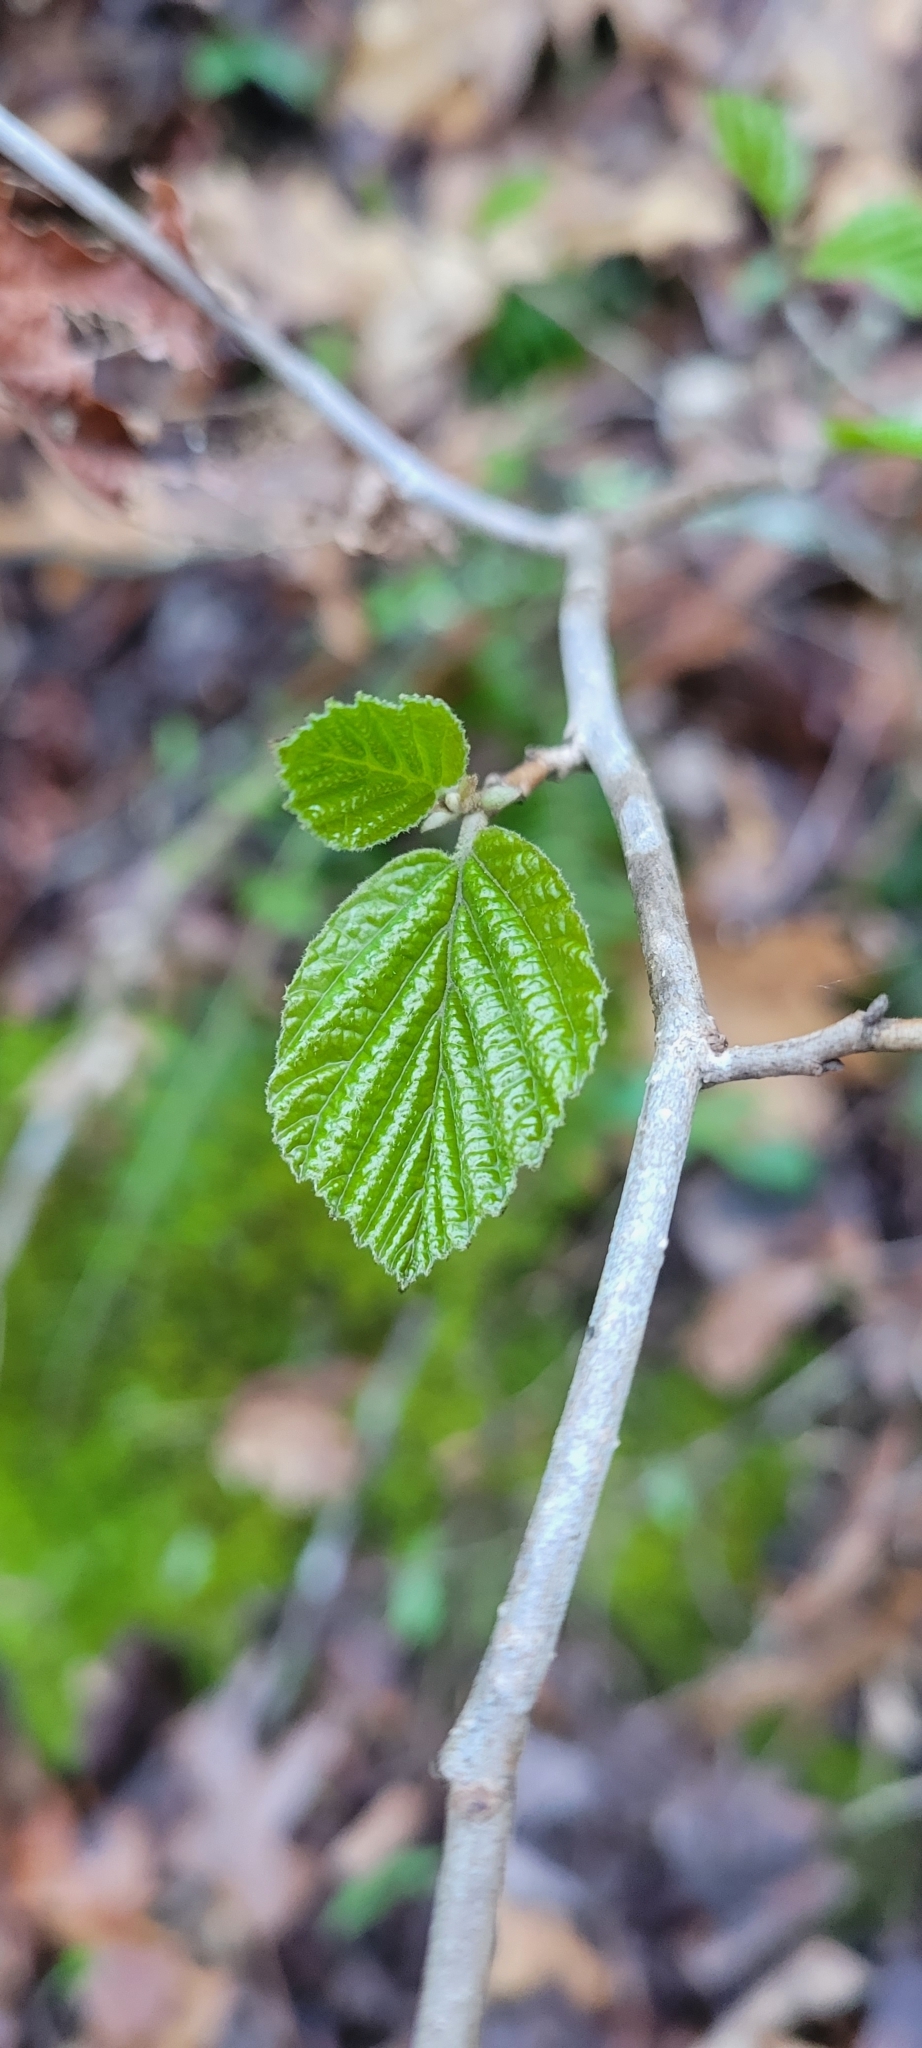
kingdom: Plantae
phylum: Tracheophyta
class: Magnoliopsida
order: Saxifragales
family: Hamamelidaceae
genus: Hamamelis
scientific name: Hamamelis virginiana
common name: Witch-hazel
